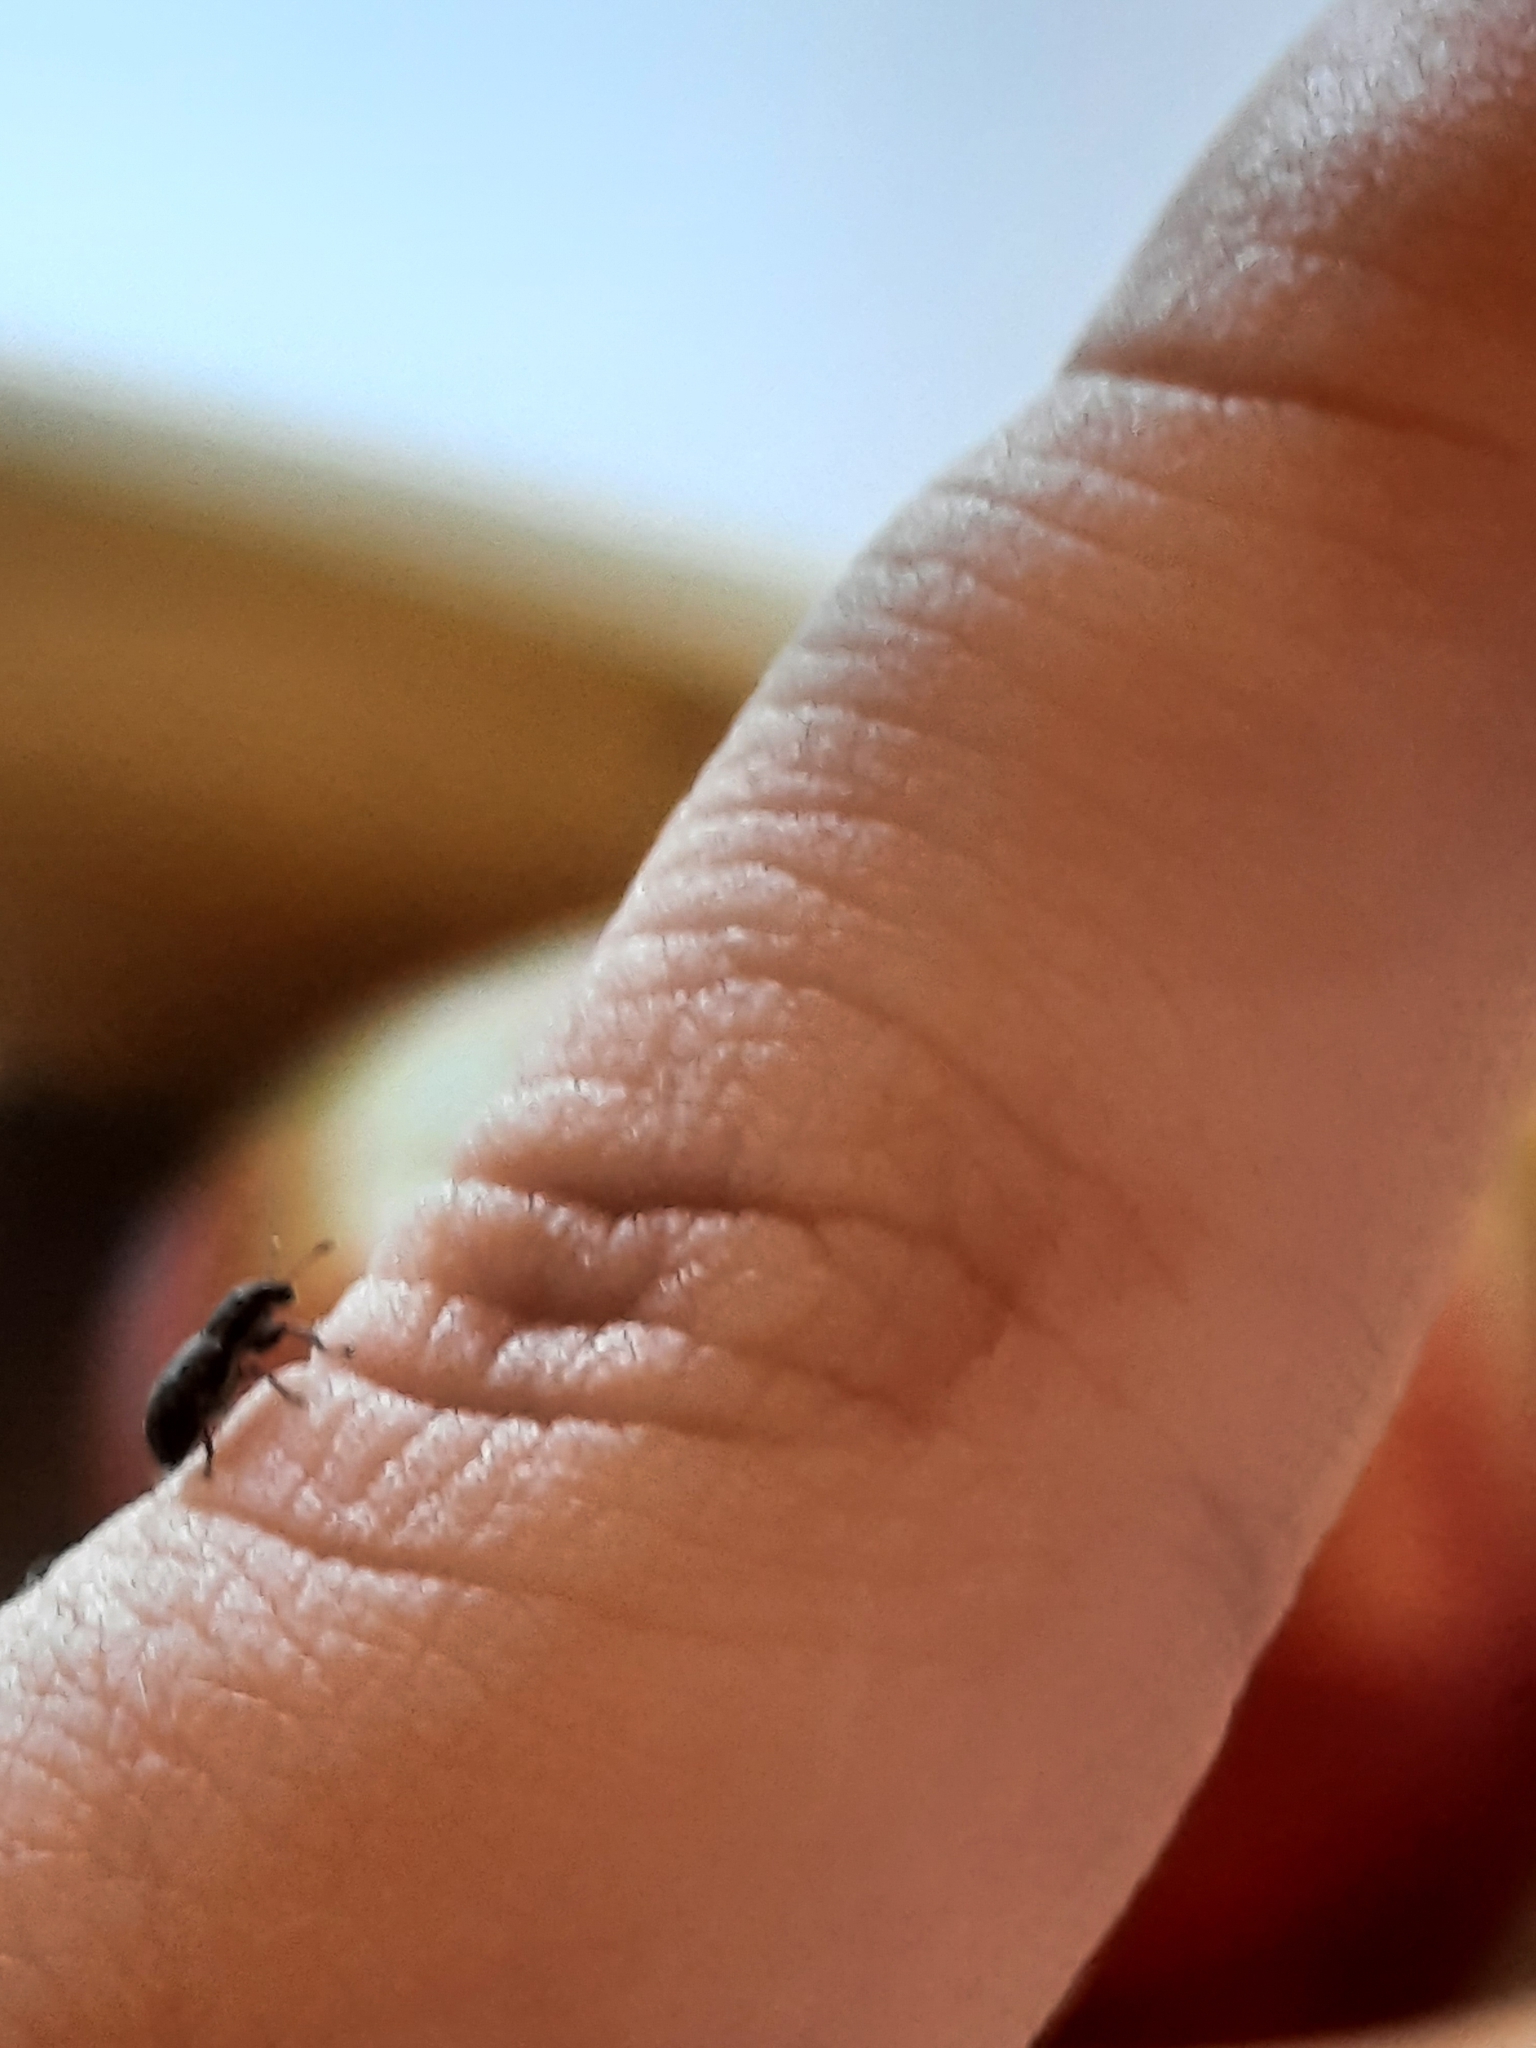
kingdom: Animalia
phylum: Arthropoda
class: Insecta
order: Coleoptera
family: Curculionidae
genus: Sitona
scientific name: Sitona sulcifrons
